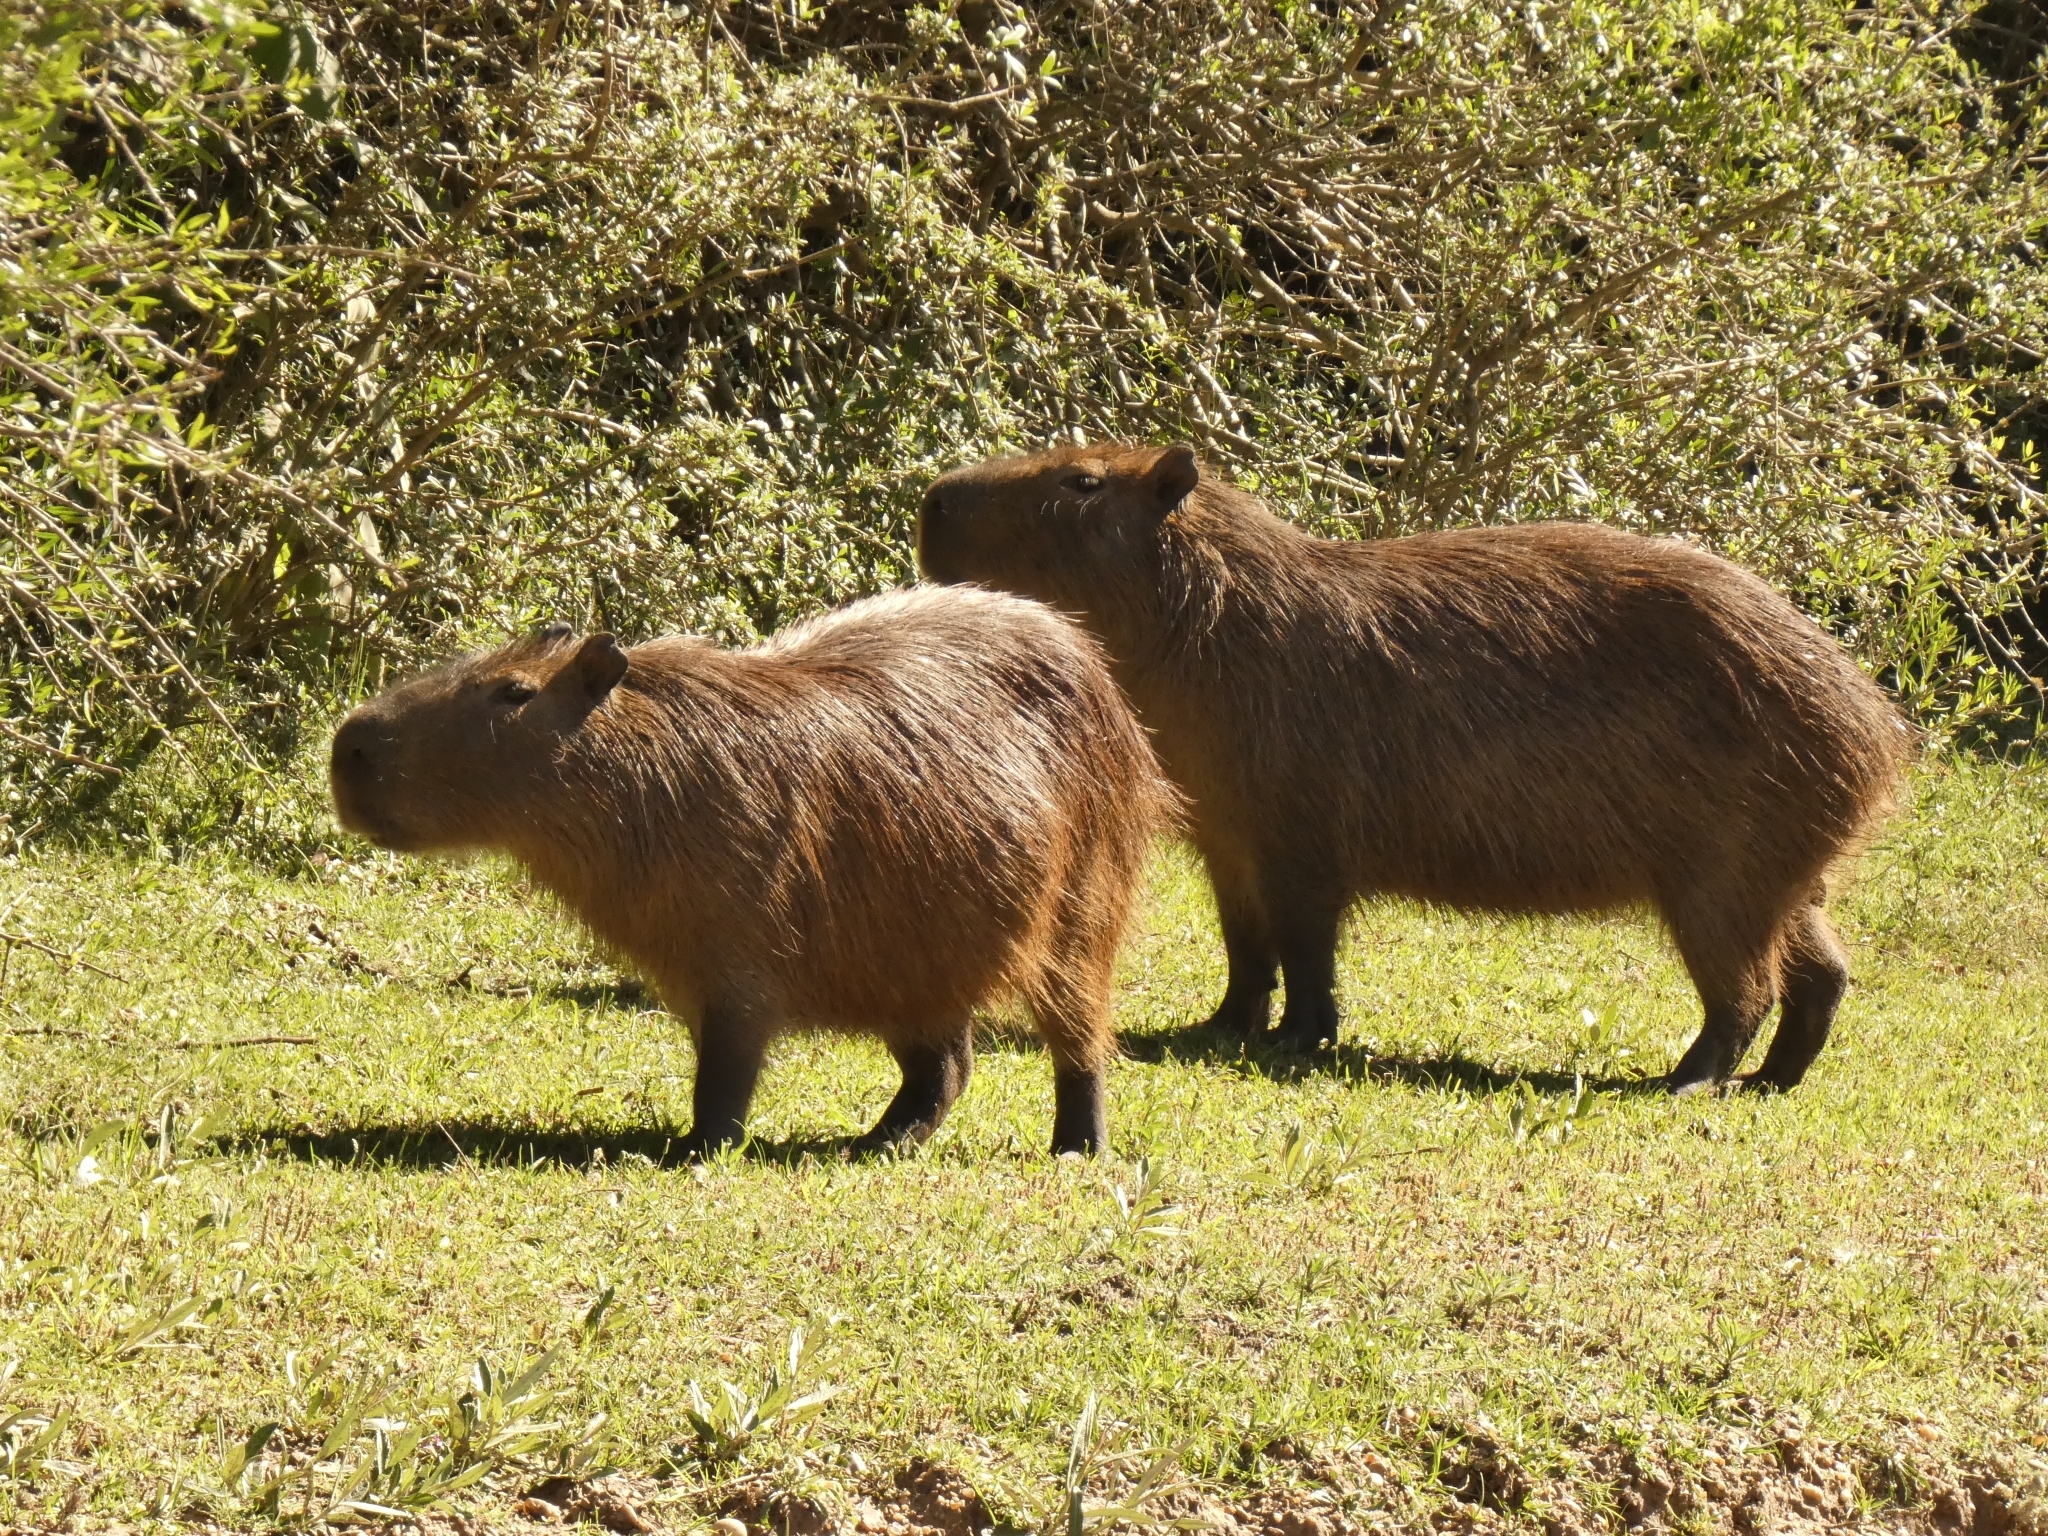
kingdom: Animalia
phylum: Chordata
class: Mammalia
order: Rodentia
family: Caviidae
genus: Hydrochoerus
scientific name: Hydrochoerus hydrochaeris
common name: Capybara
